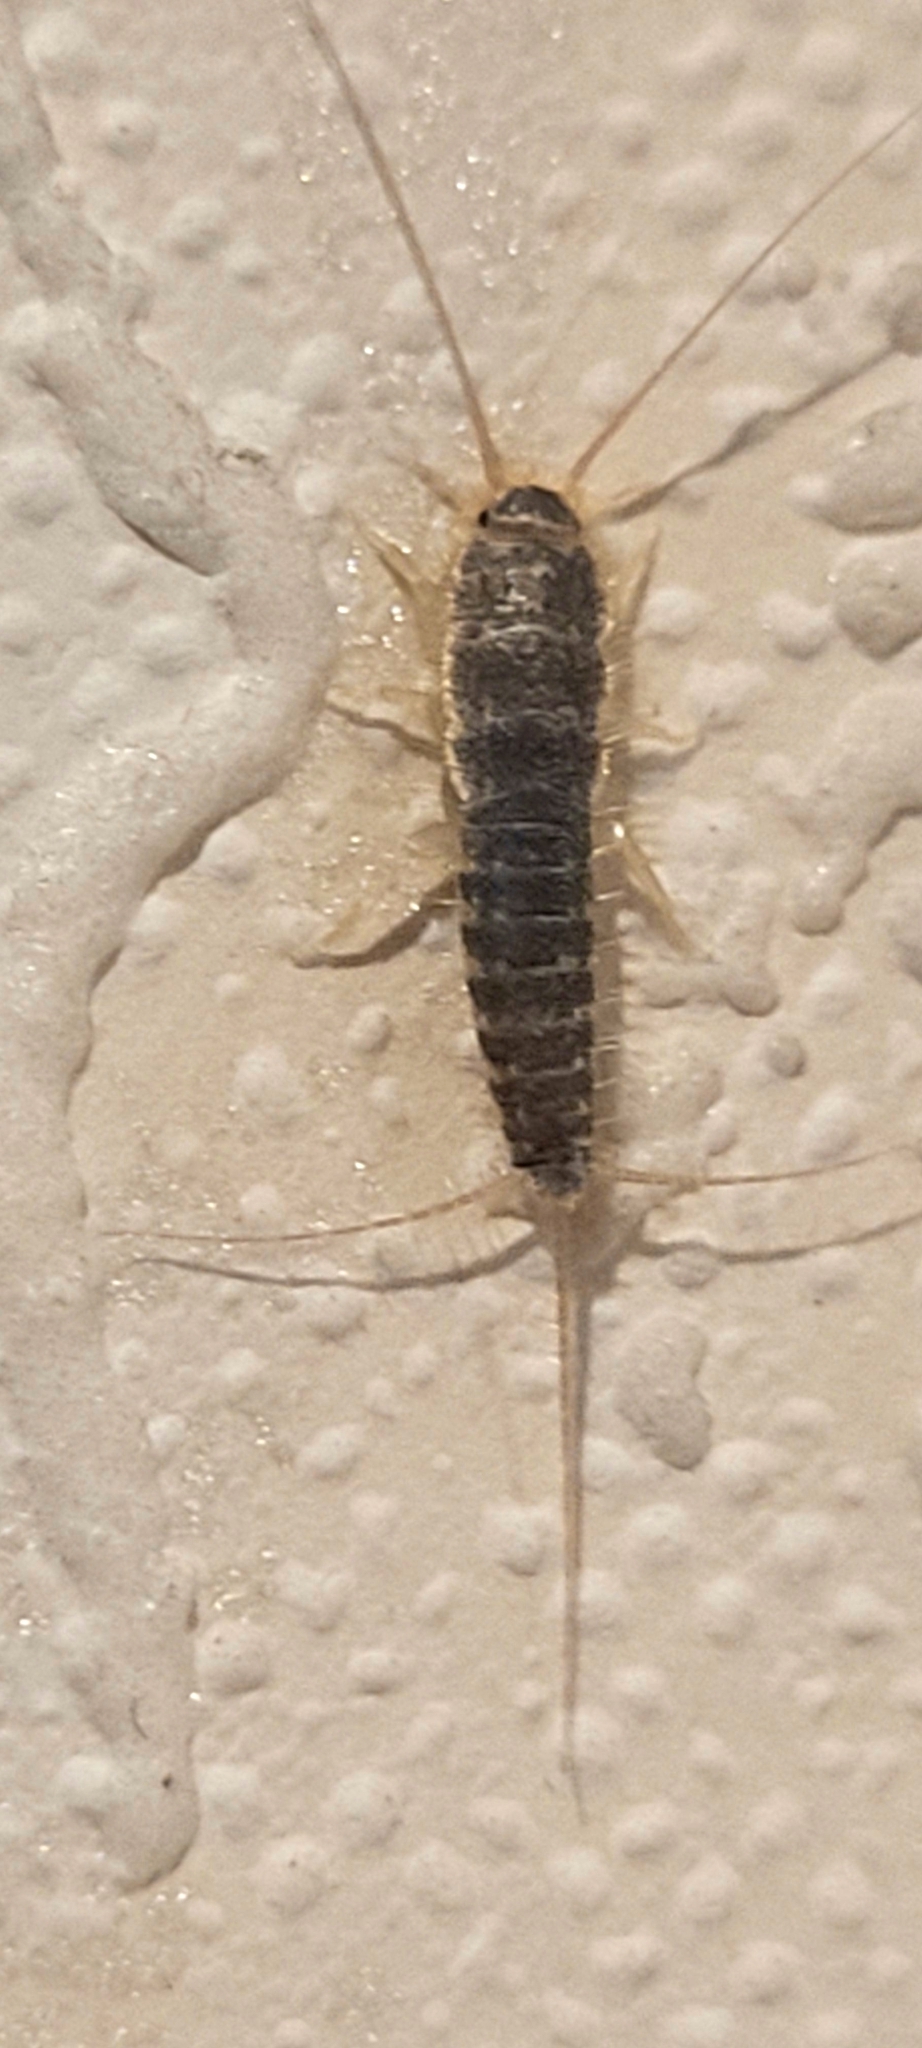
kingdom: Animalia
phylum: Arthropoda
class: Insecta
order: Zygentoma
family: Lepismatidae
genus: Ctenolepisma
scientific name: Ctenolepisma longicaudatum
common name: Silverfish
